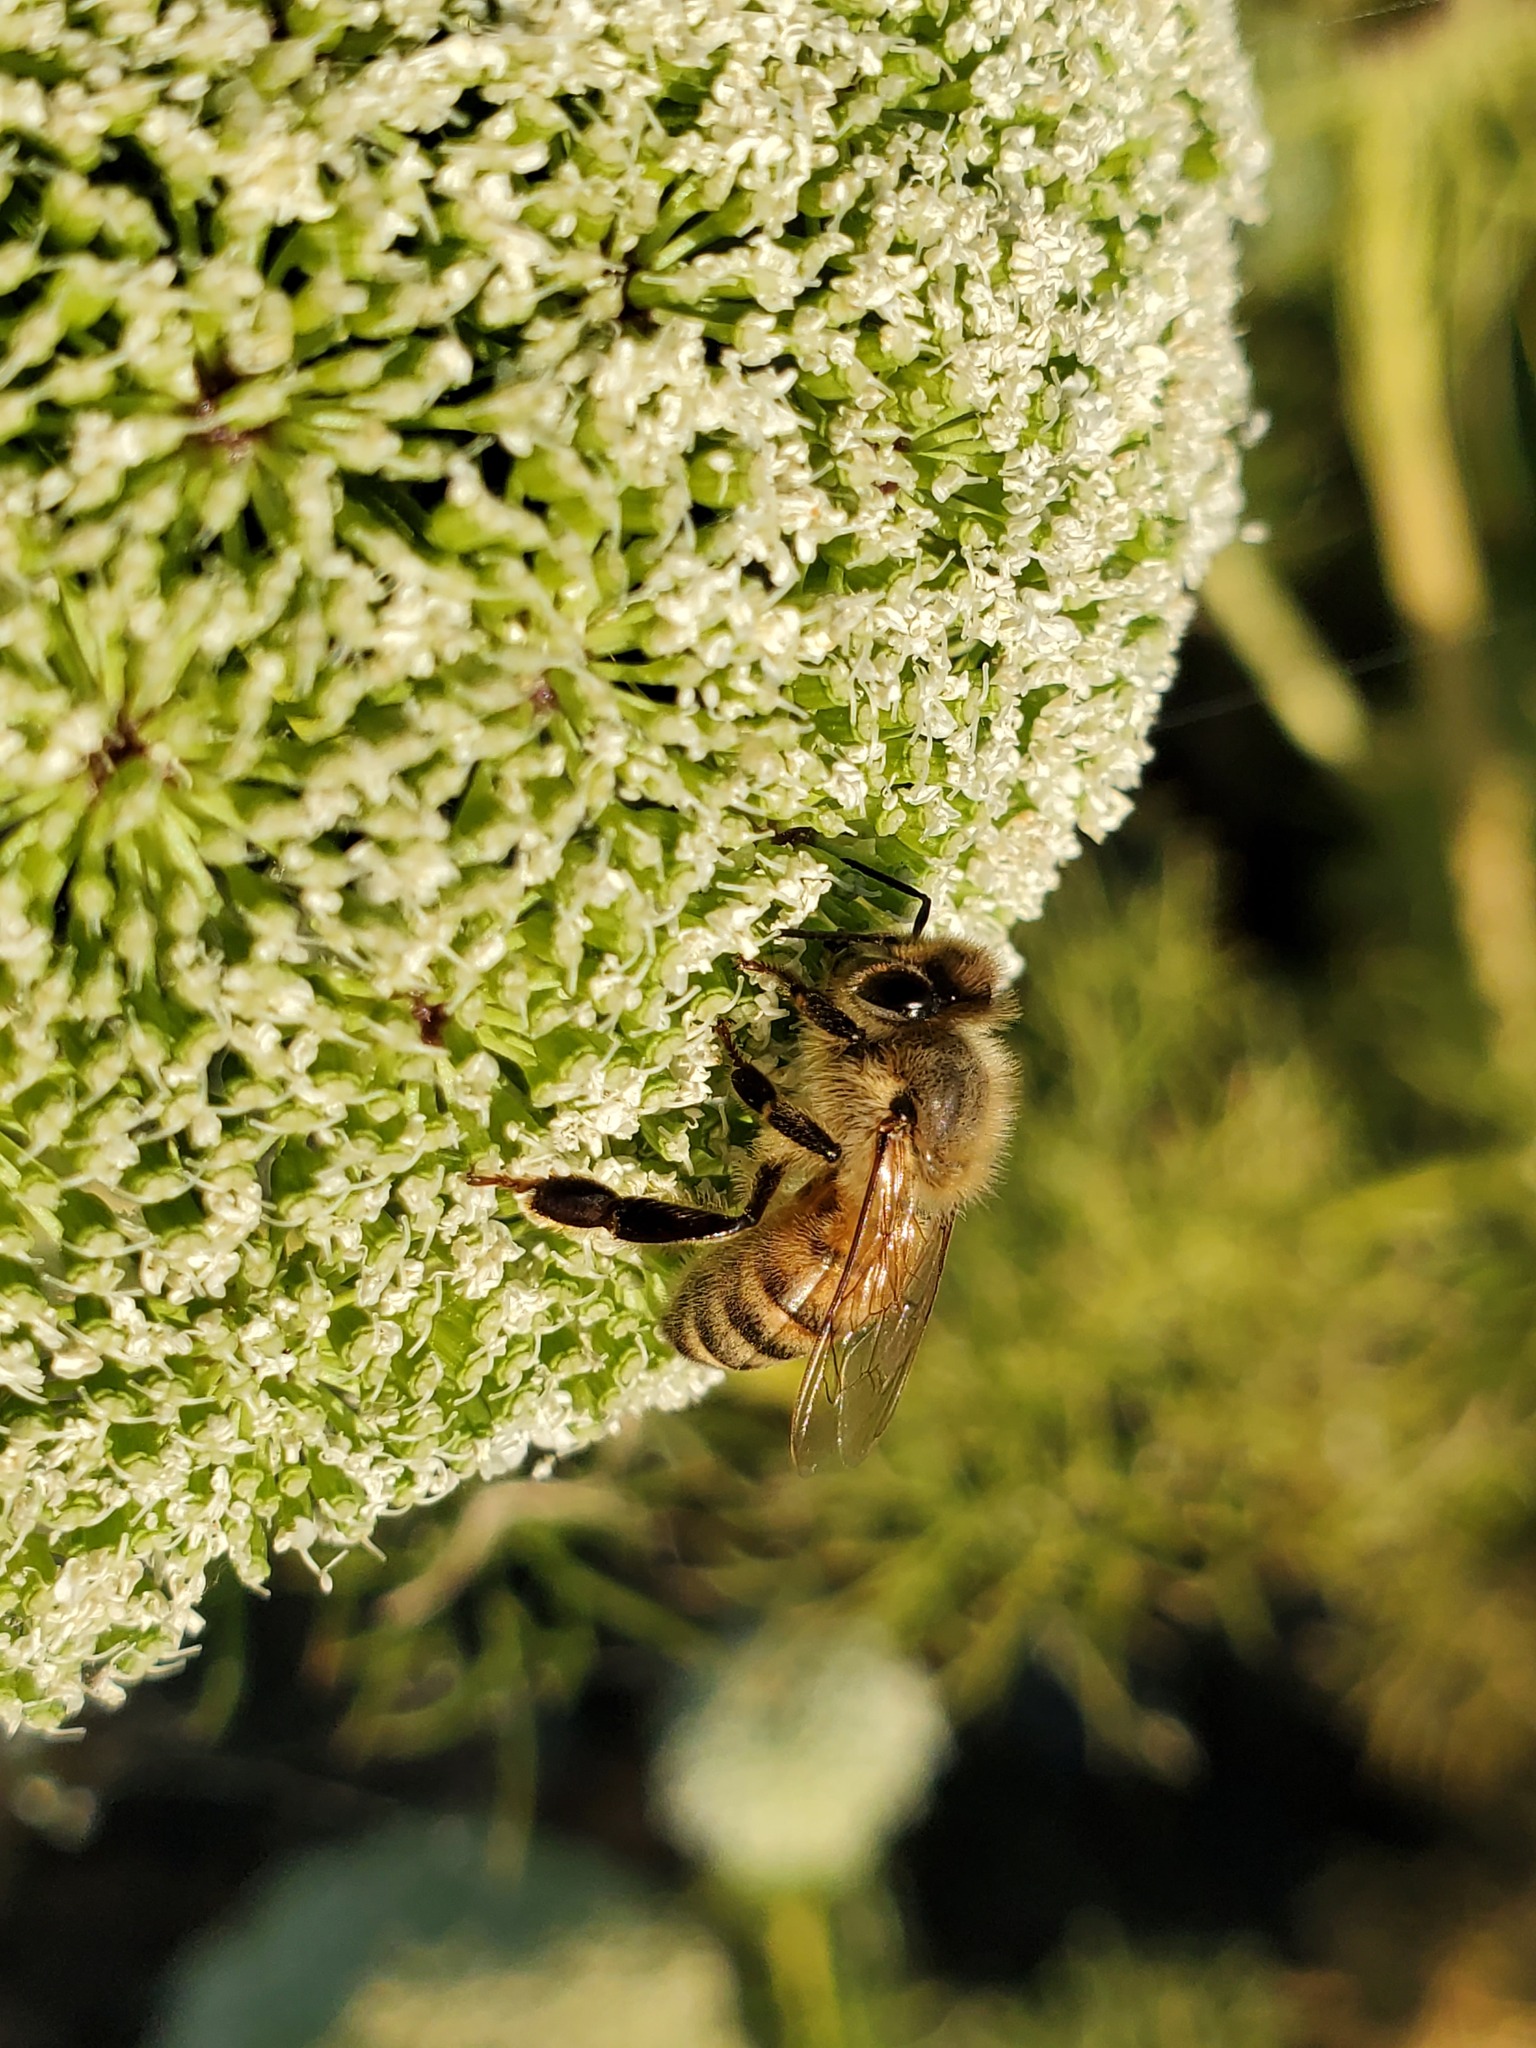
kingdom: Animalia
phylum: Arthropoda
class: Insecta
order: Hymenoptera
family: Apidae
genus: Apis
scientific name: Apis mellifera
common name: Honey bee
